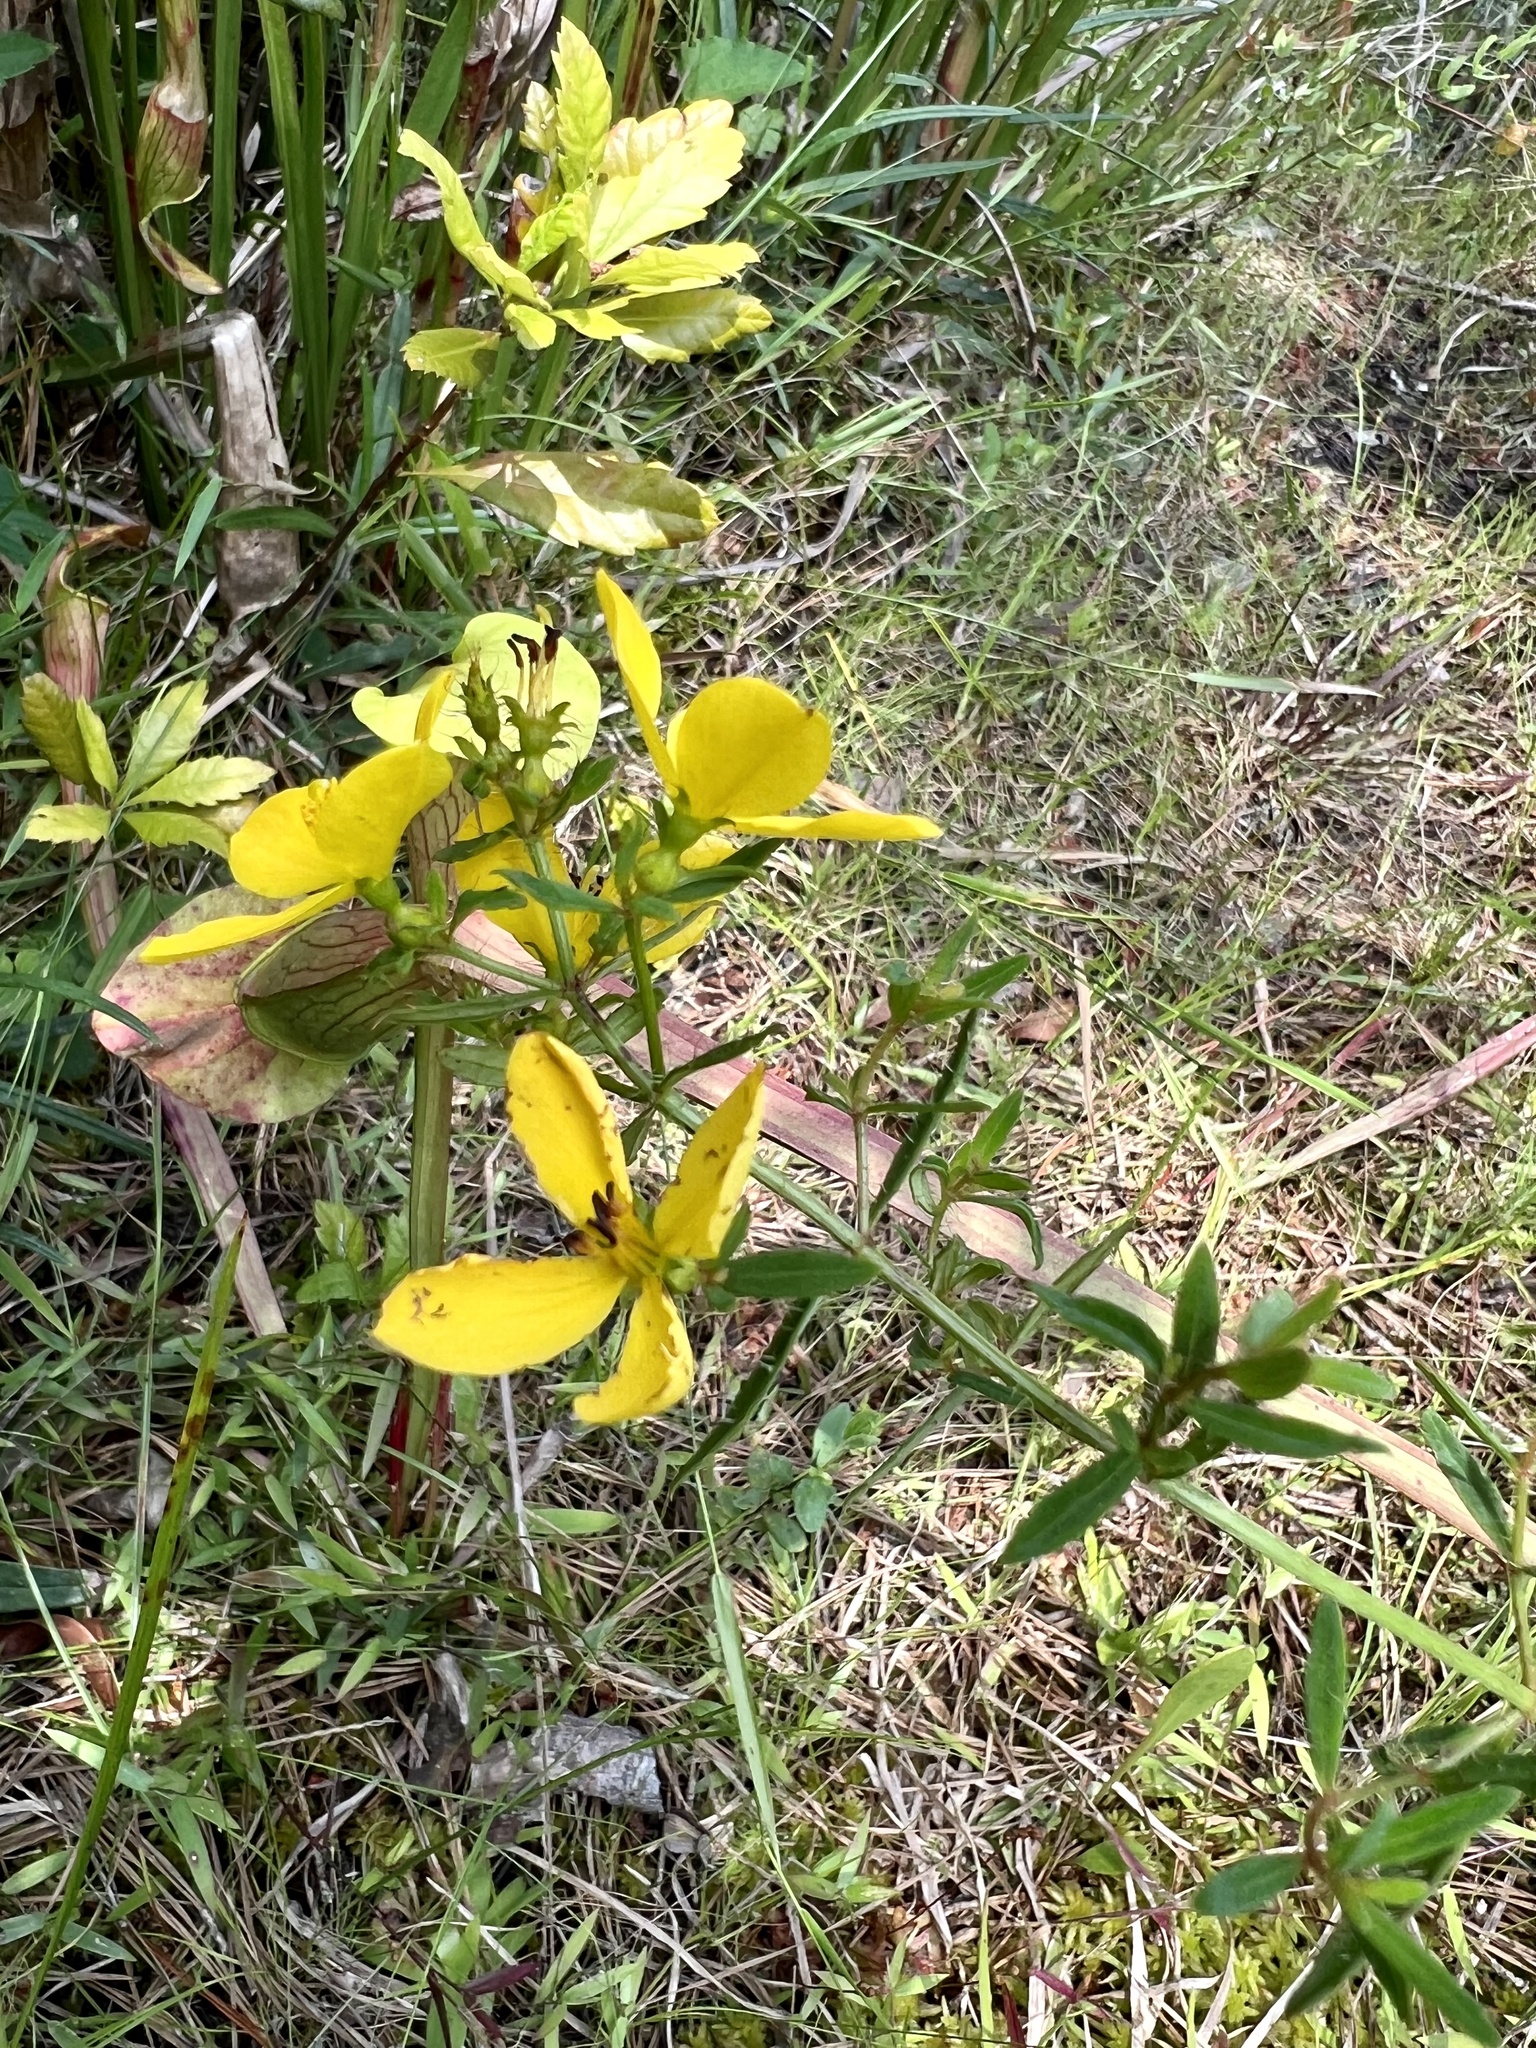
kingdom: Plantae
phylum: Tracheophyta
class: Magnoliopsida
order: Myrtales
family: Melastomataceae
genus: Rhexia
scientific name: Rhexia lutea
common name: Golden meadow-beauty
